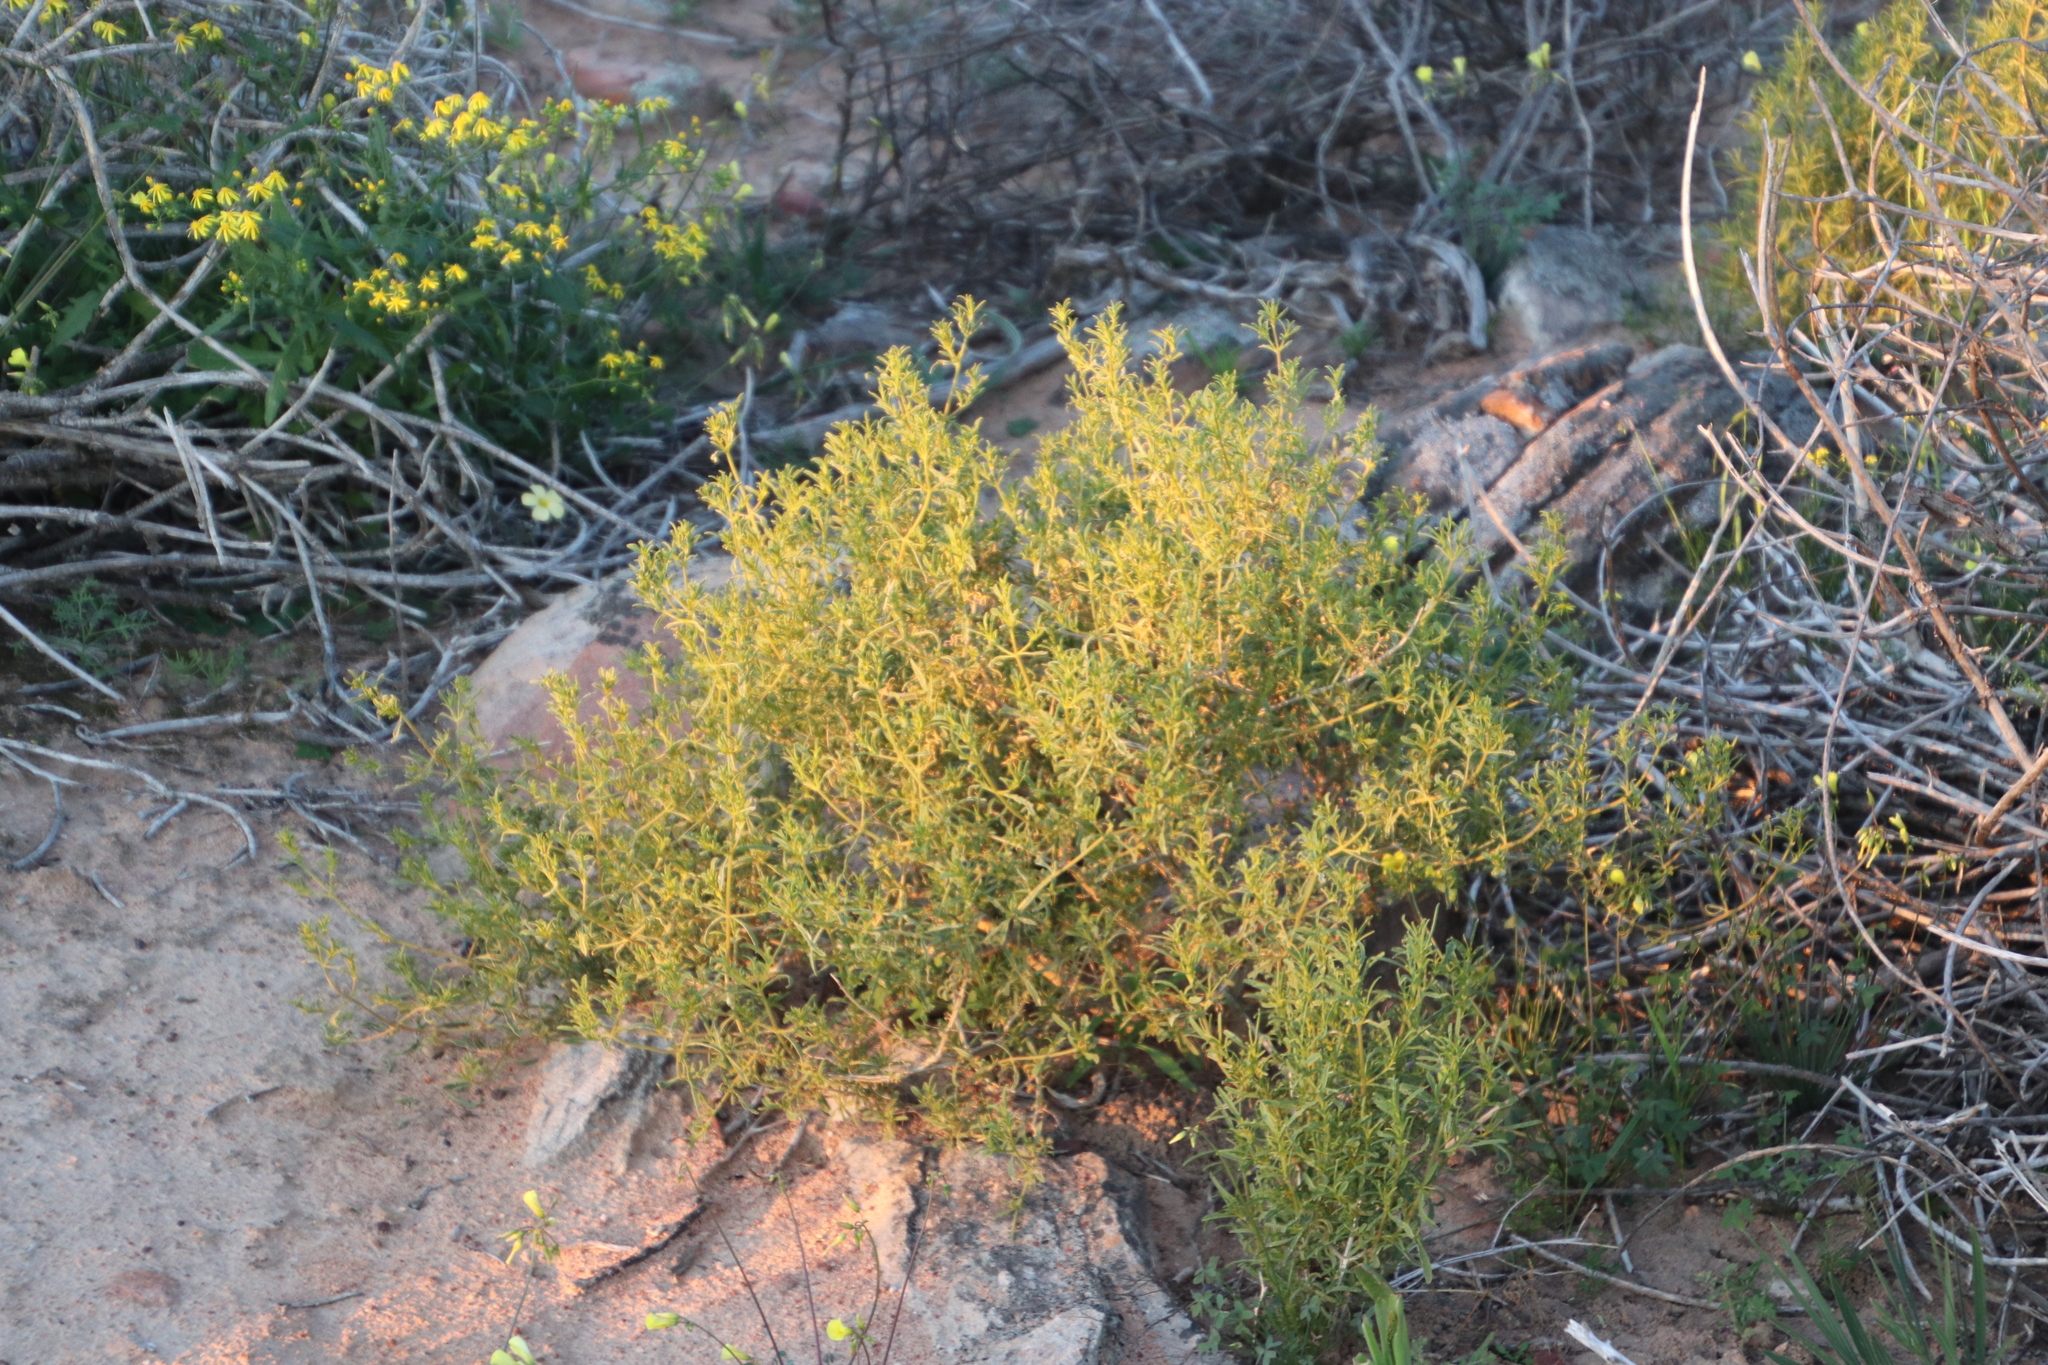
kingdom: Plantae
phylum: Tracheophyta
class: Magnoliopsida
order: Caryophyllales
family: Aizoaceae
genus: Aizoon
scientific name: Aizoon africanum
